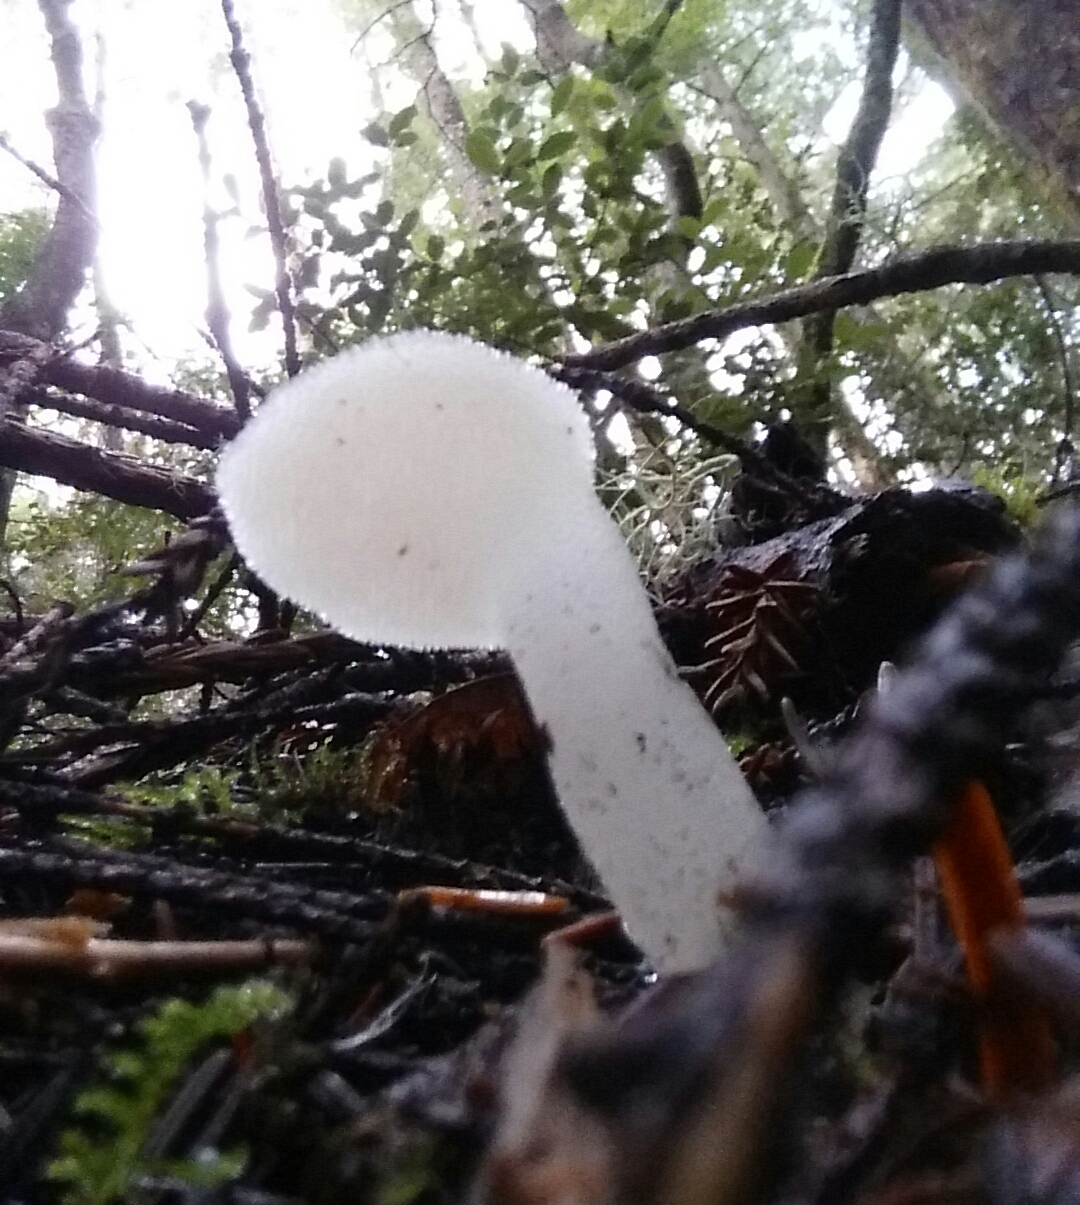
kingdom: Fungi
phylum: Basidiomycota
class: Agaricomycetes
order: Auriculariales
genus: Pseudohydnum
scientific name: Pseudohydnum gelatinosum
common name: Jelly tongue
